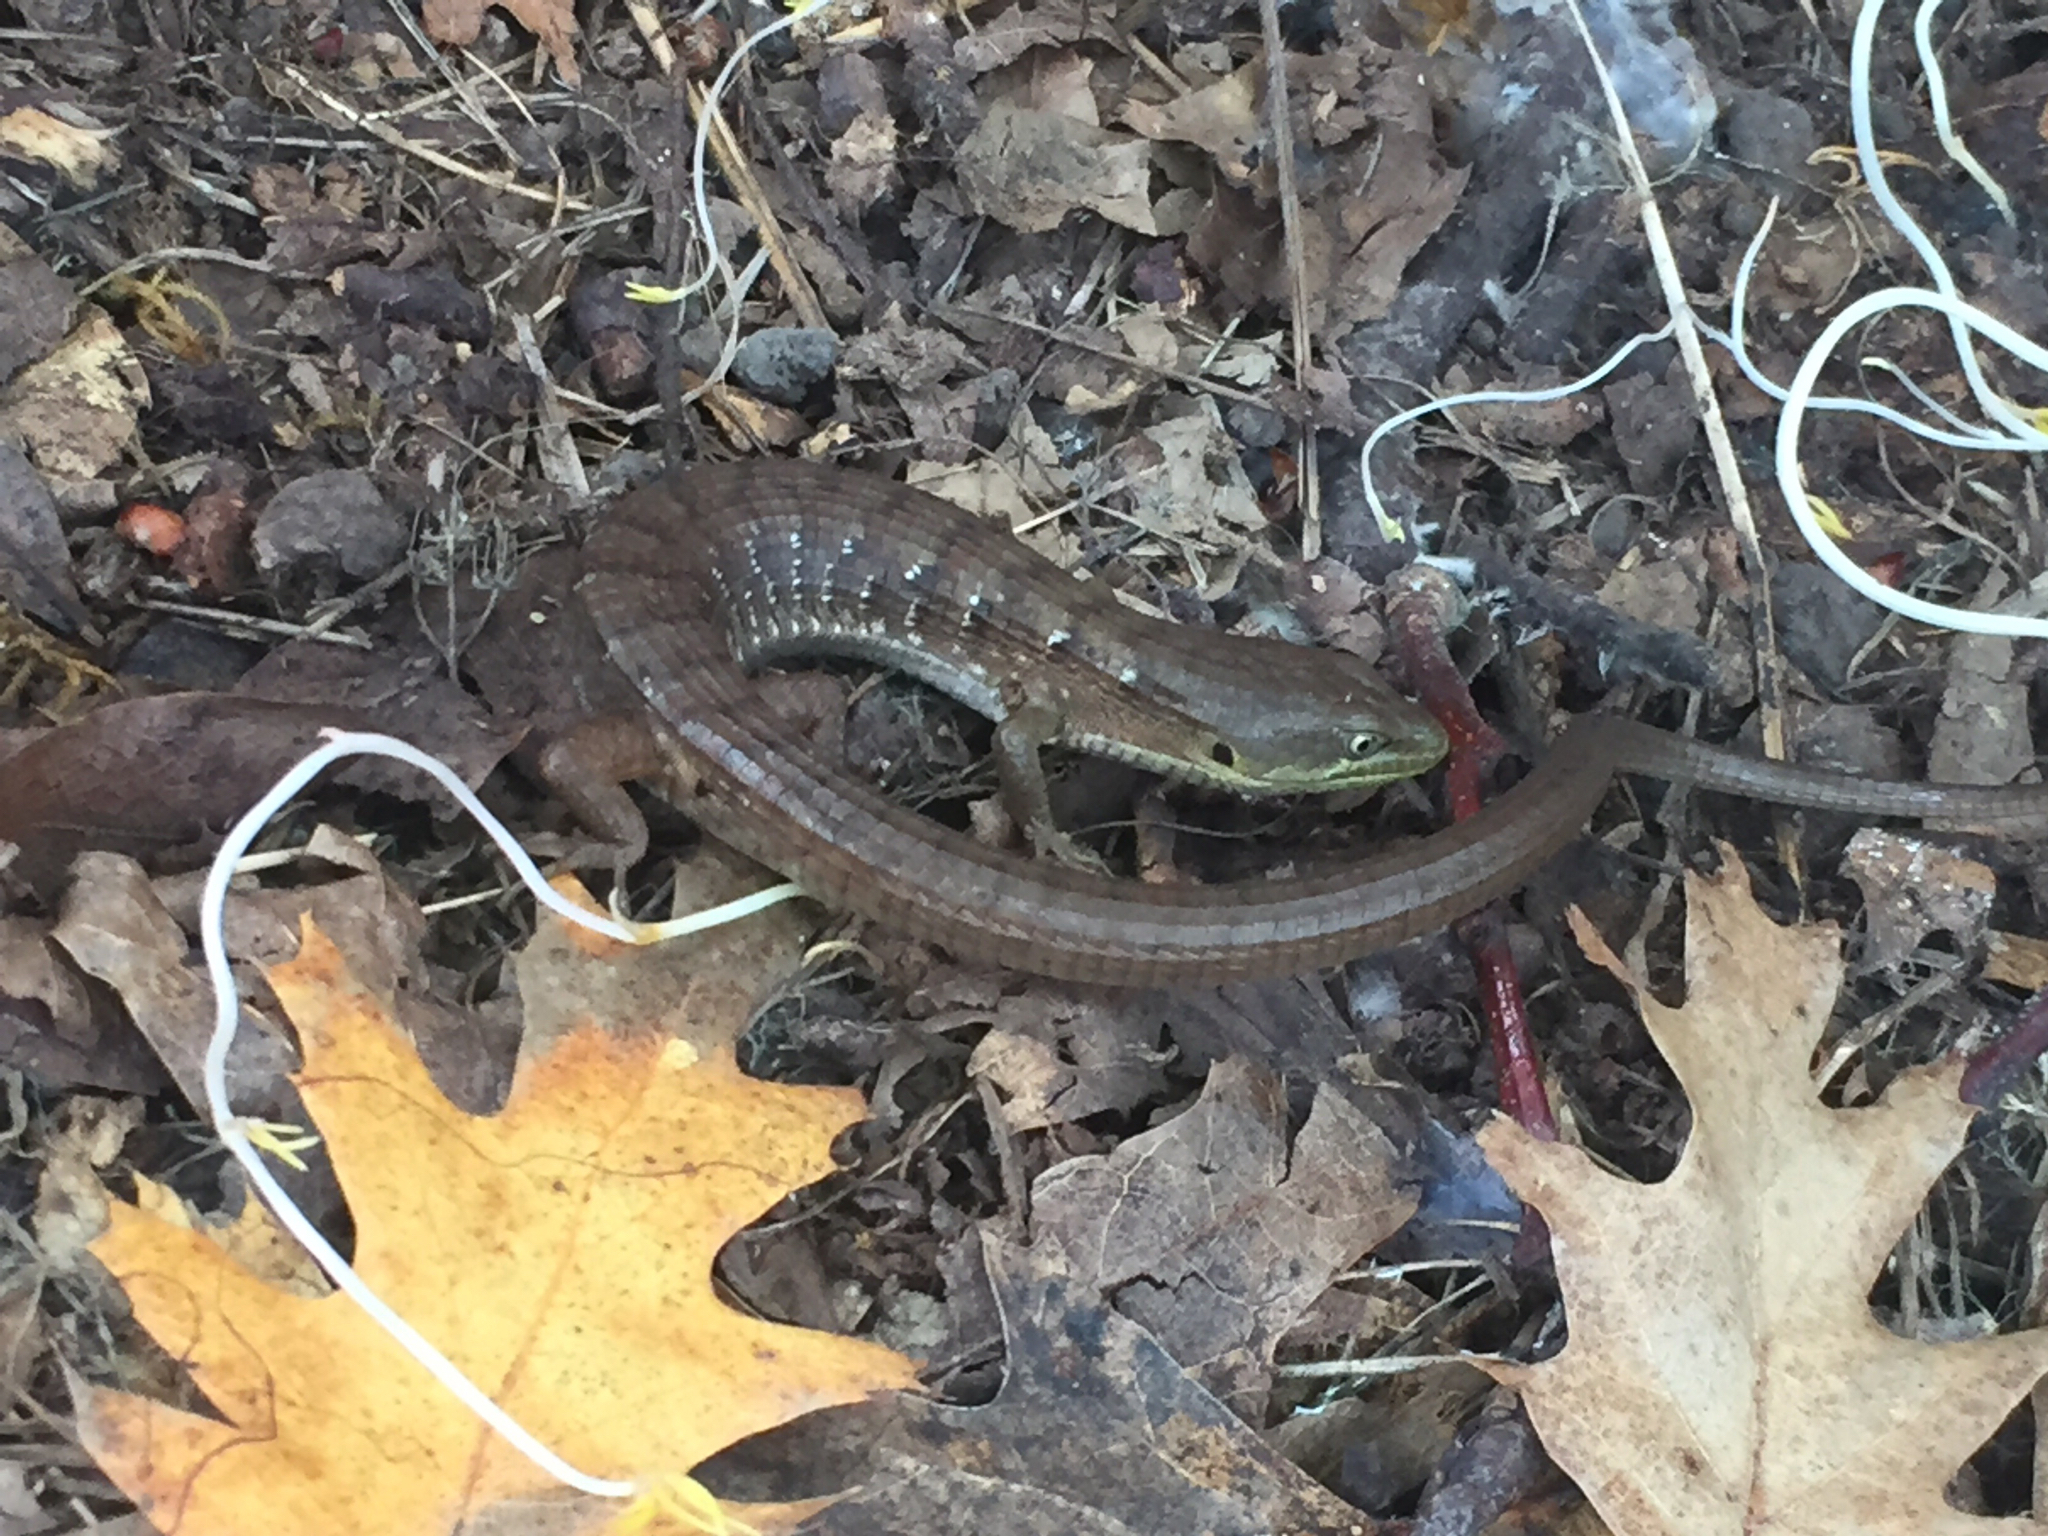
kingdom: Animalia
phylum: Chordata
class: Squamata
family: Anguidae
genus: Elgaria
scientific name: Elgaria multicarinata
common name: Southern alligator lizard
